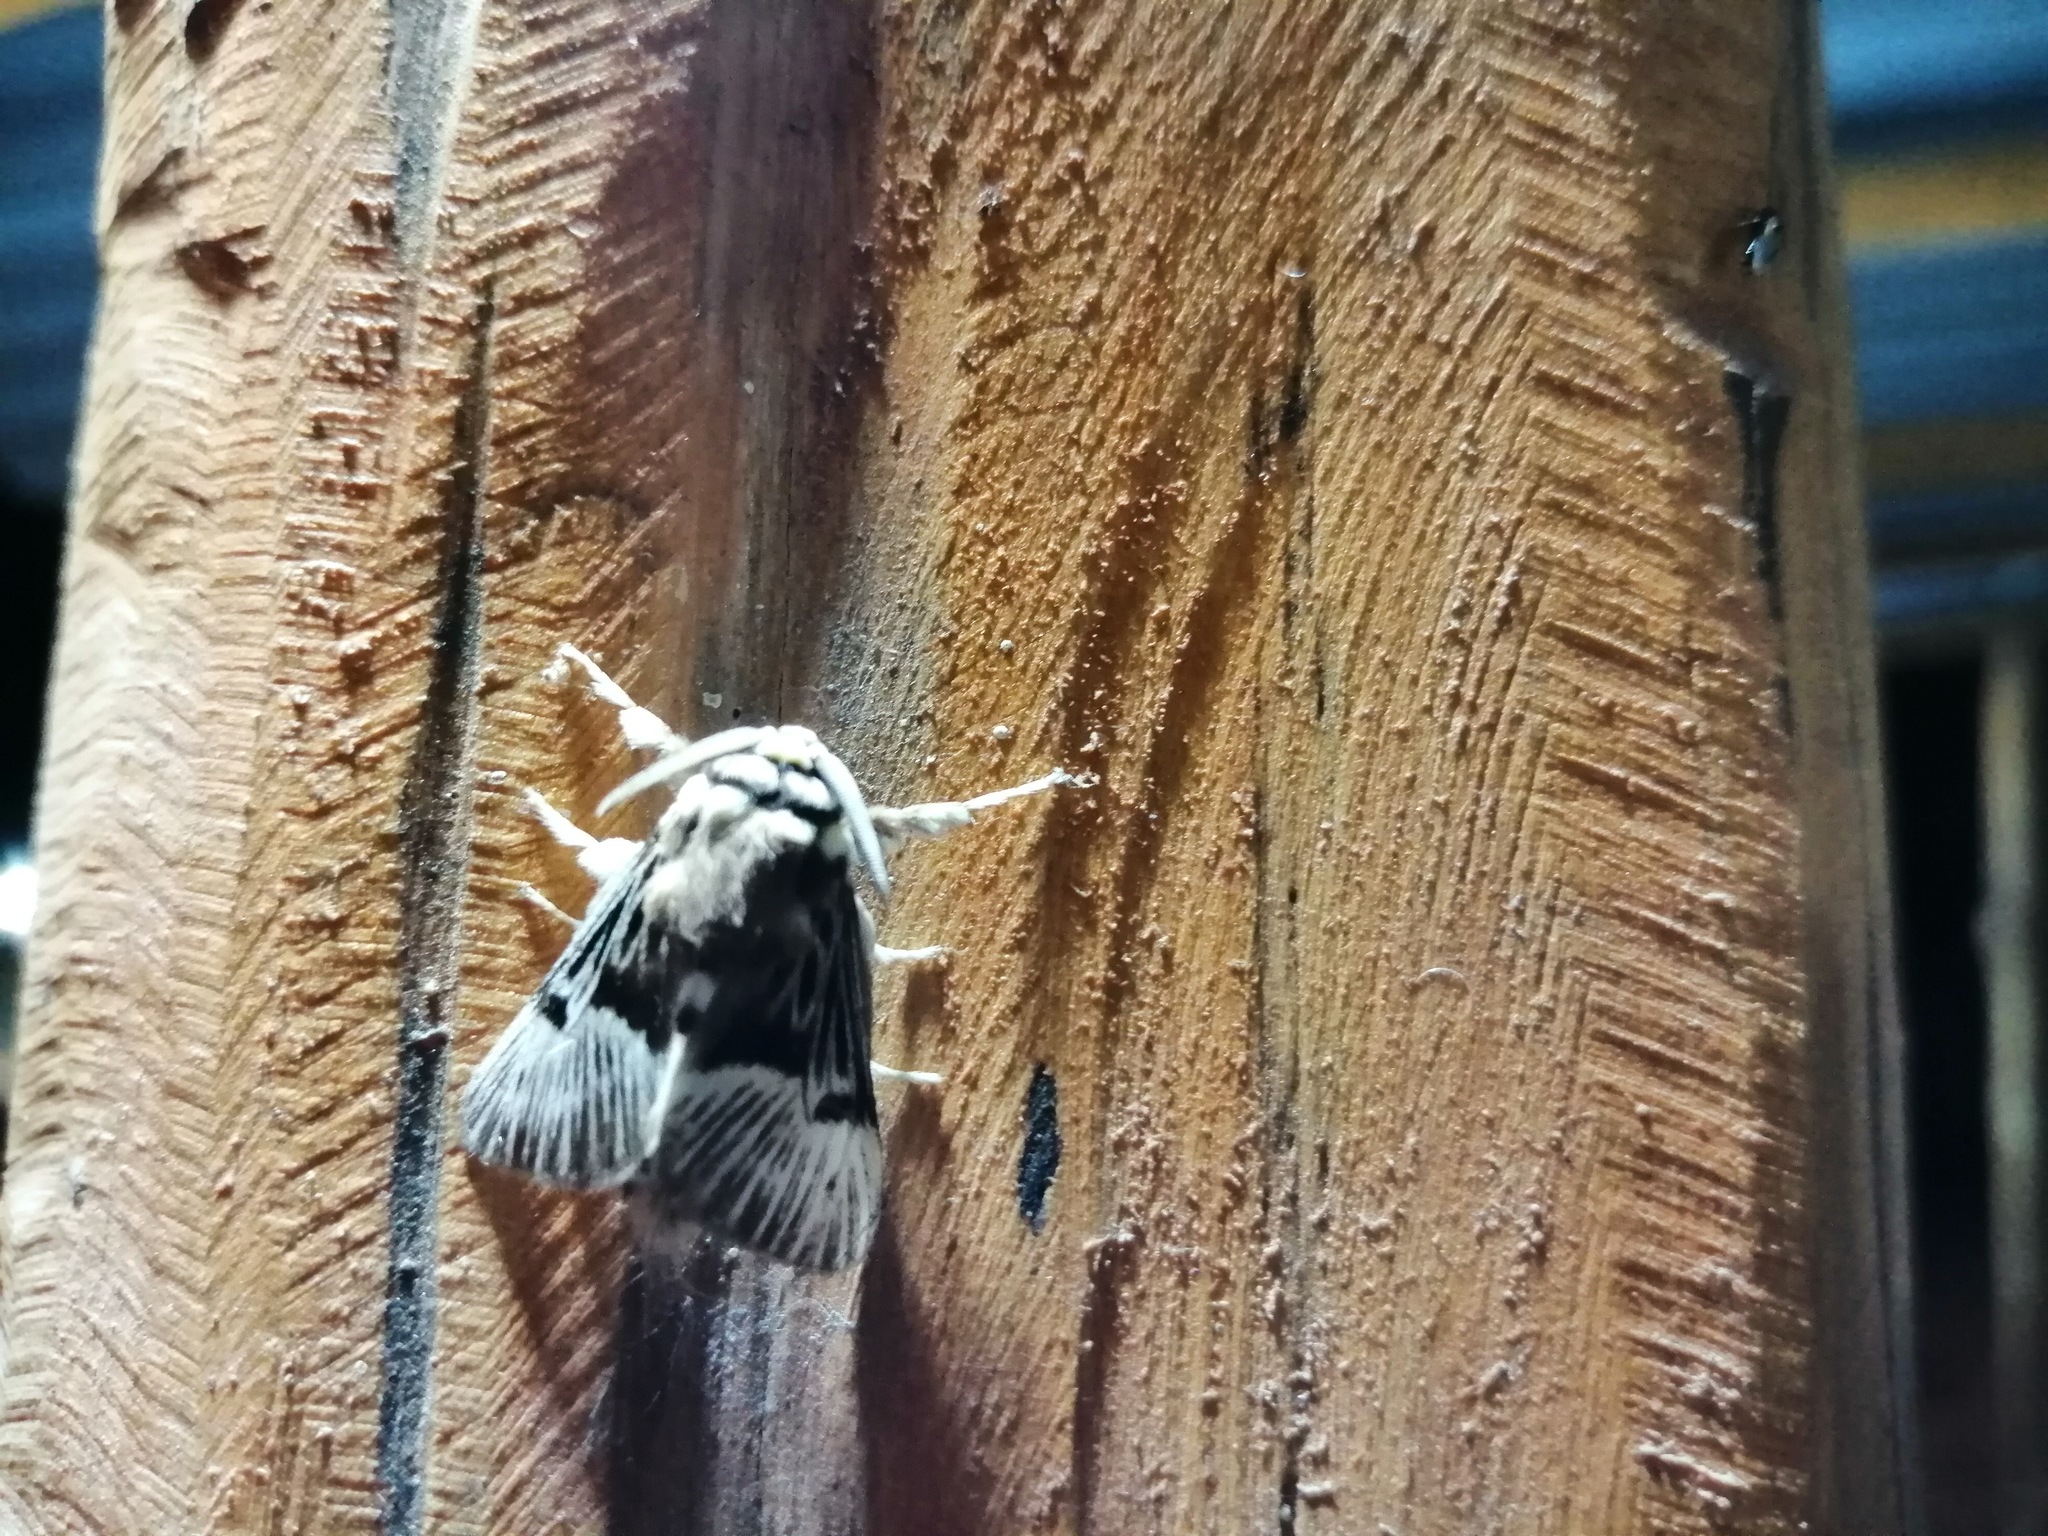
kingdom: Animalia
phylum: Arthropoda
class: Insecta
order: Lepidoptera
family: Megalopygidae
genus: Megalopyge
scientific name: Megalopyge lampra
